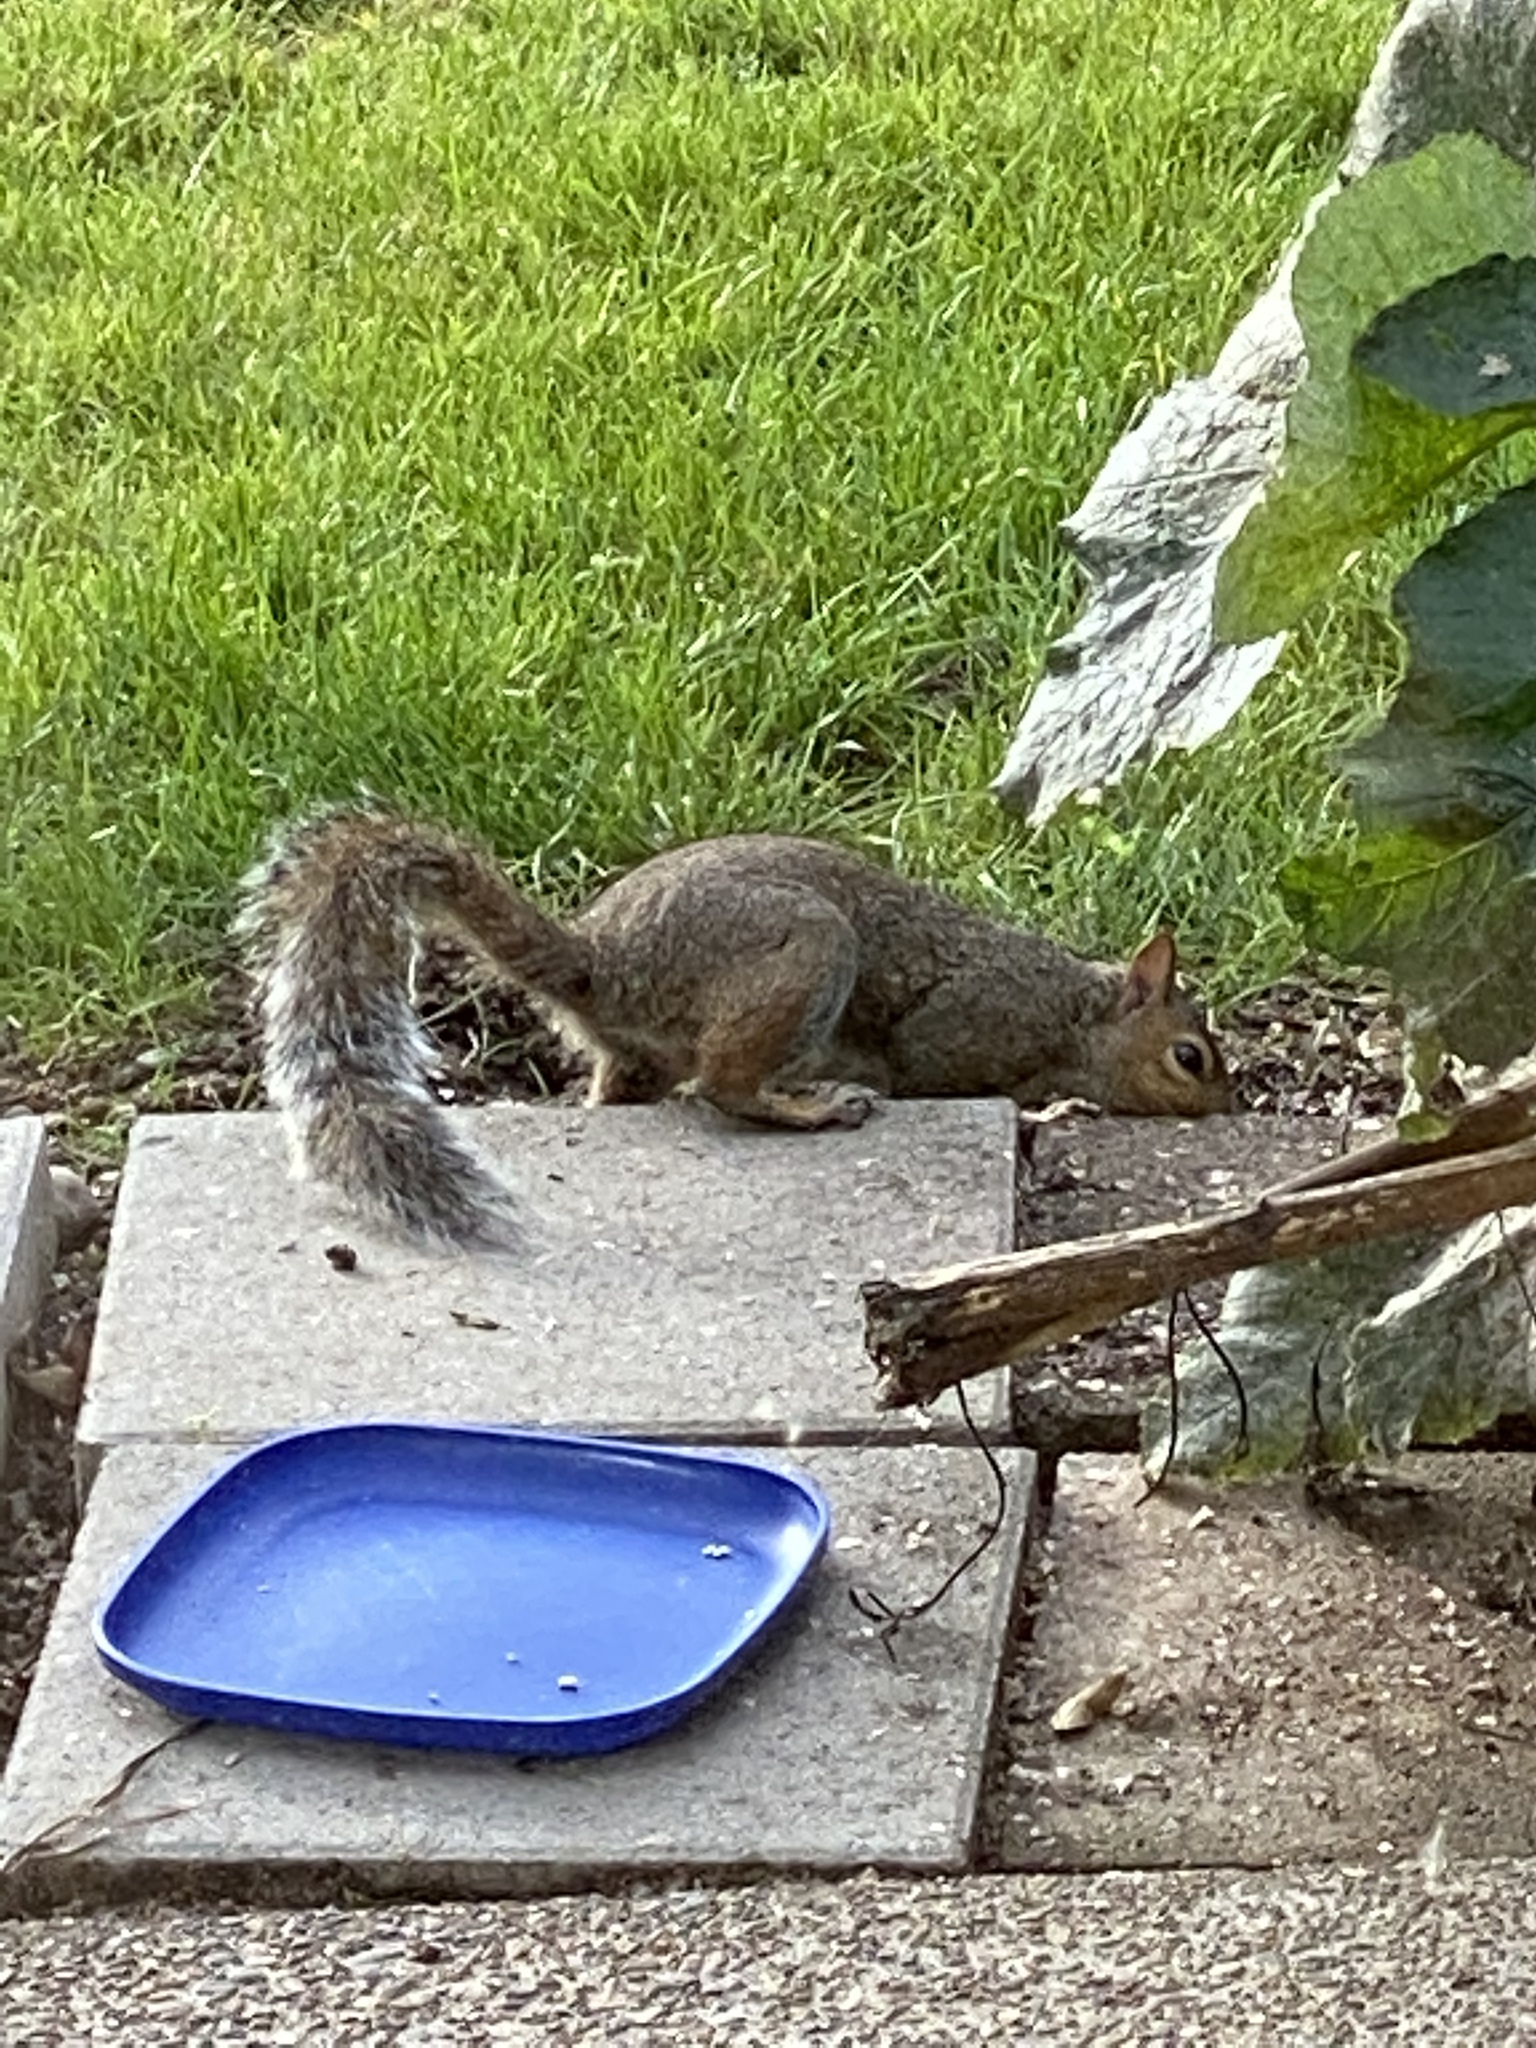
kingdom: Animalia
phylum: Chordata
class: Mammalia
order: Rodentia
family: Sciuridae
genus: Sciurus
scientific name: Sciurus carolinensis
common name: Eastern gray squirrel
